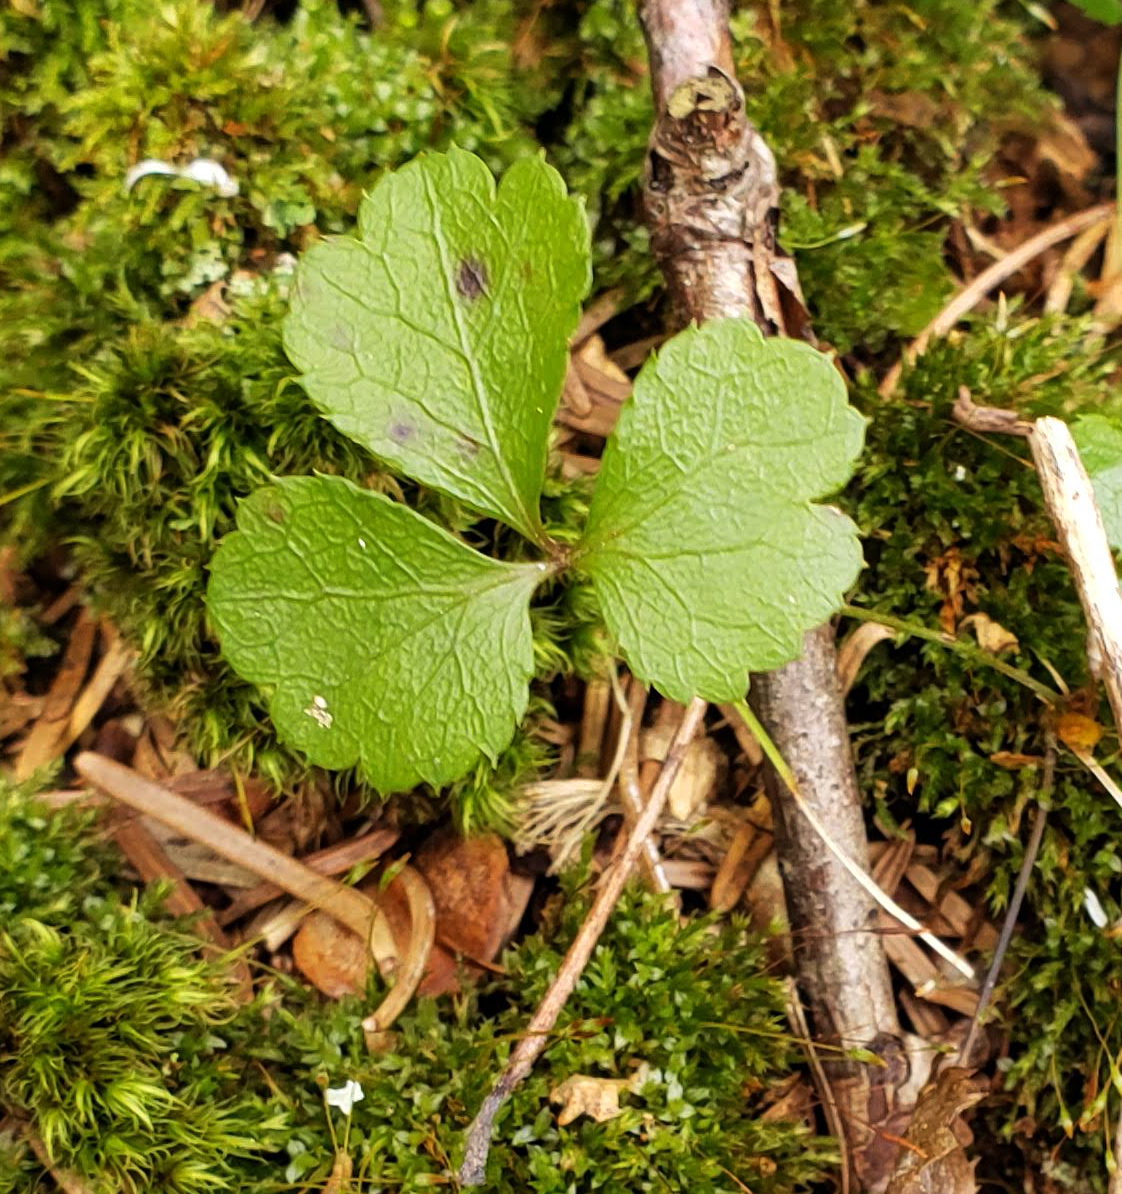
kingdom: Plantae
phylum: Tracheophyta
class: Magnoliopsida
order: Ranunculales
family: Ranunculaceae
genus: Coptis
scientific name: Coptis trifolia
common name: Canker-root
